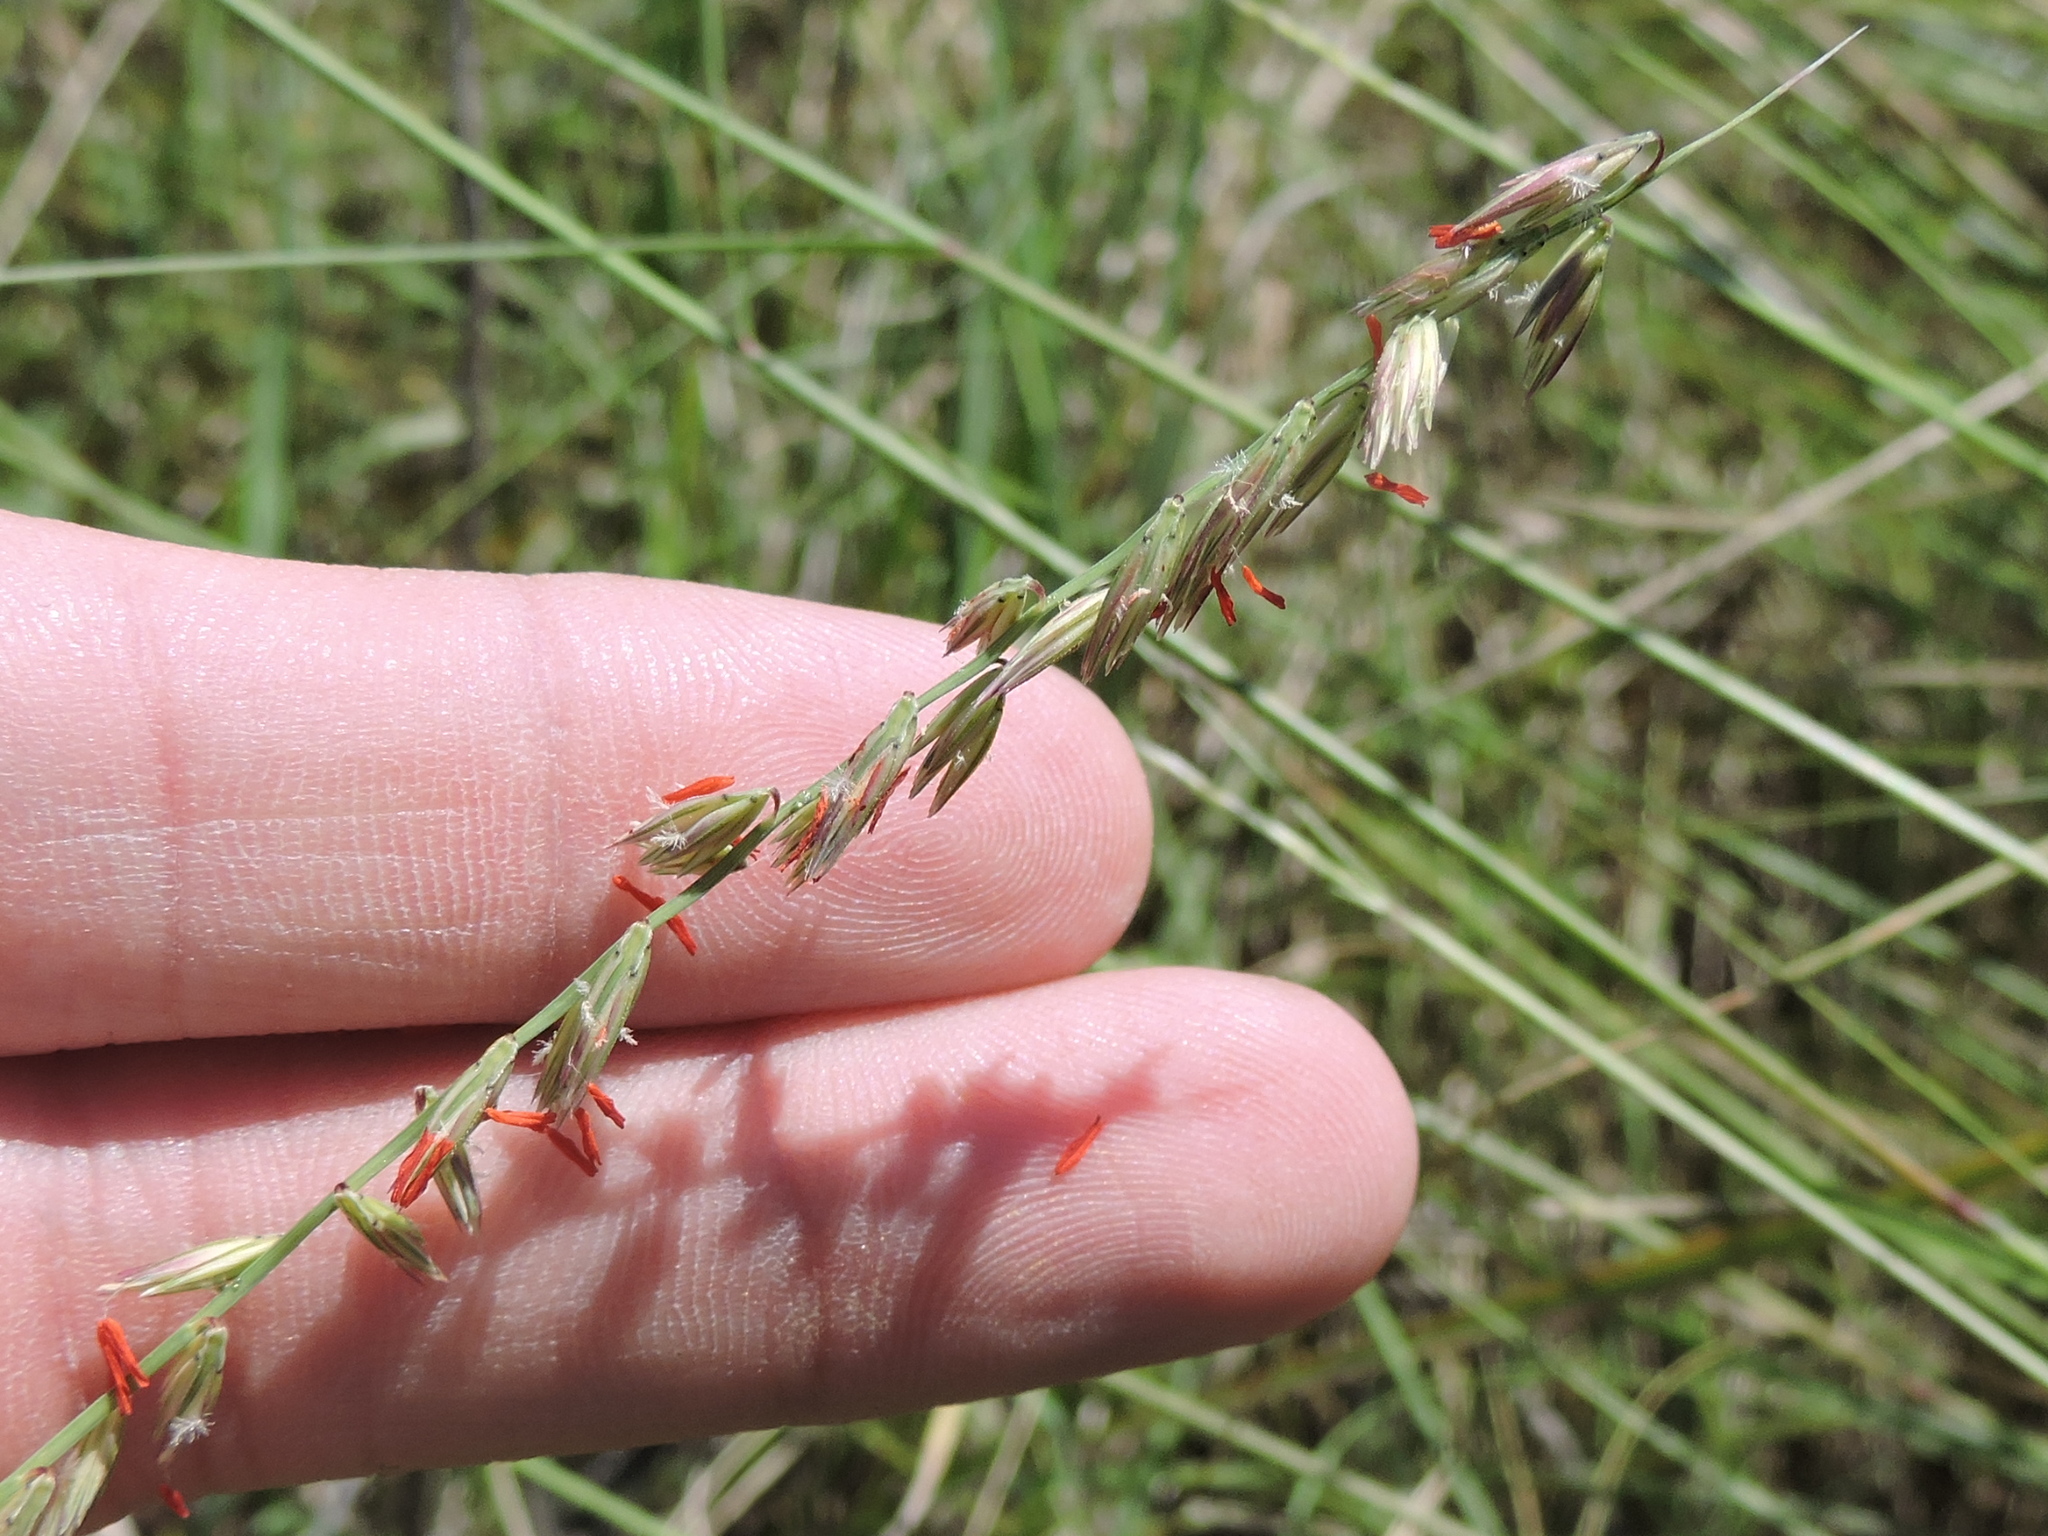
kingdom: Plantae
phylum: Tracheophyta
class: Liliopsida
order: Poales
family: Poaceae
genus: Bouteloua
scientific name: Bouteloua curtipendula
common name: Side-oats grama
